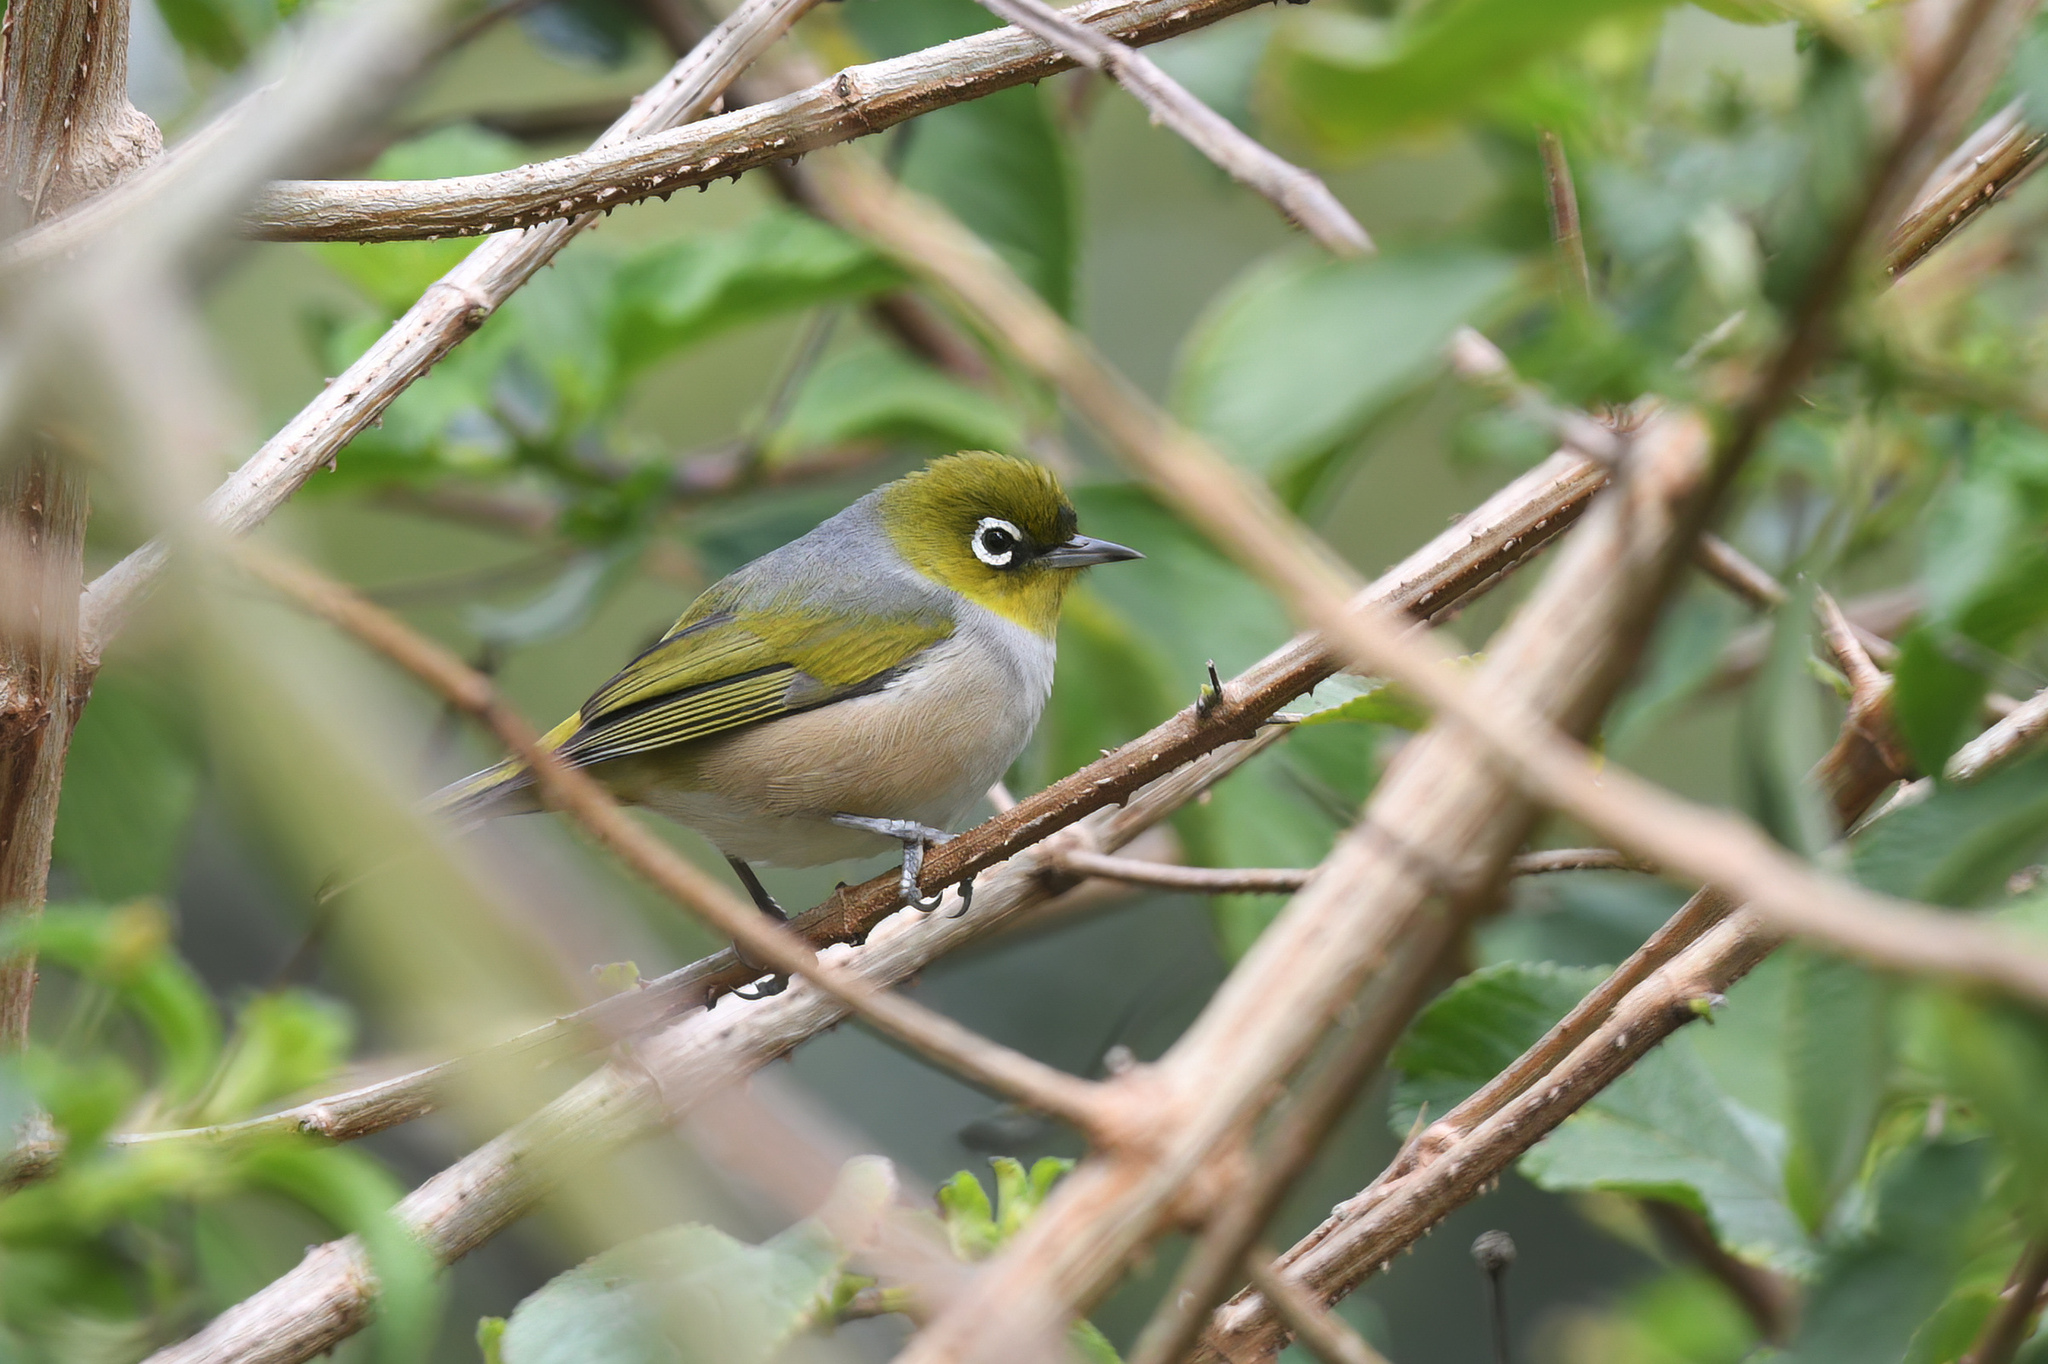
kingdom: Animalia
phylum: Chordata
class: Aves
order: Passeriformes
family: Zosteropidae
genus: Zosterops
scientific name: Zosterops lateralis
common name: Silvereye
